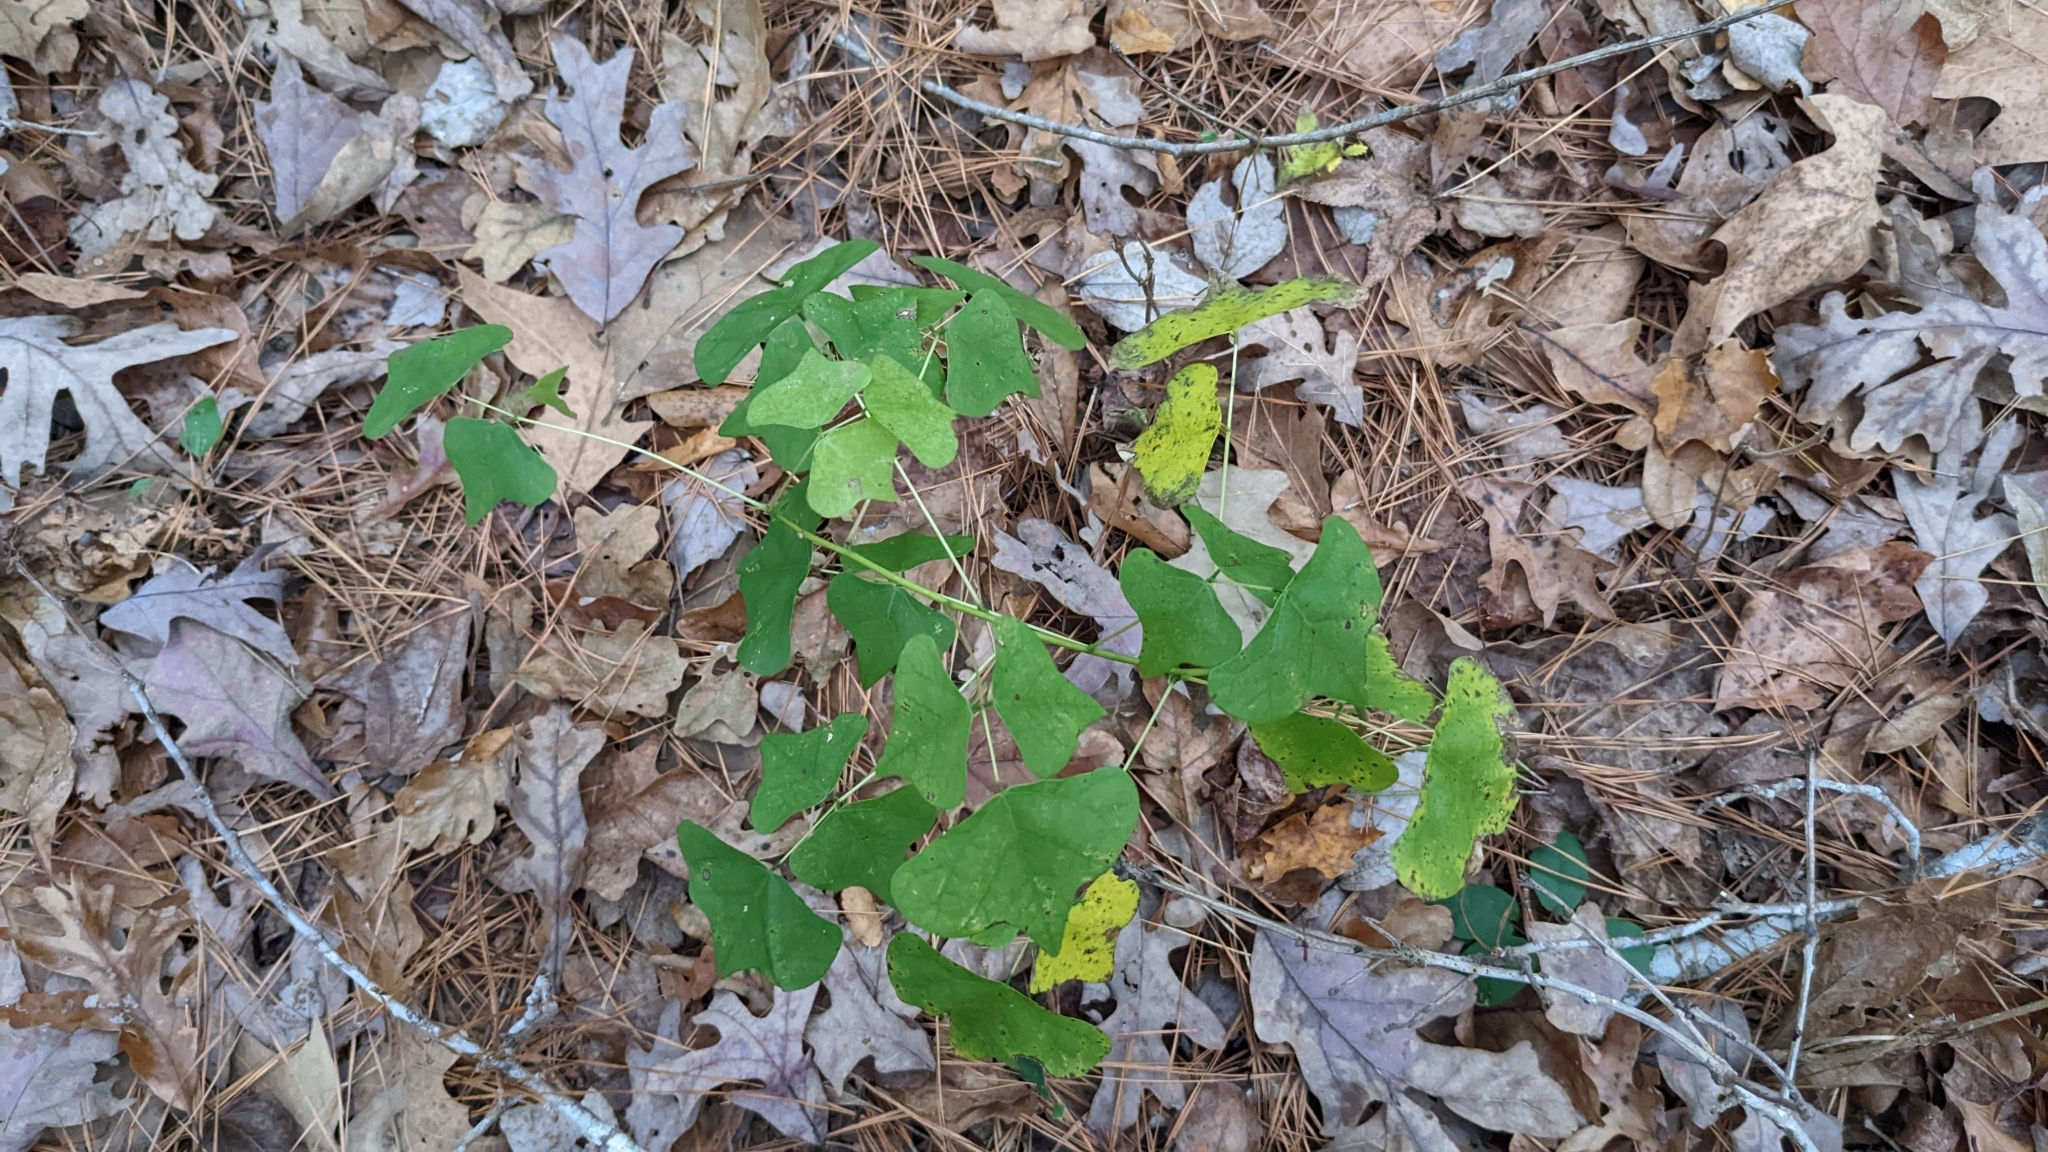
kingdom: Plantae
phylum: Tracheophyta
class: Magnoliopsida
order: Fabales
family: Fabaceae
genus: Erythrina
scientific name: Erythrina herbacea
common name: Coral-bean
